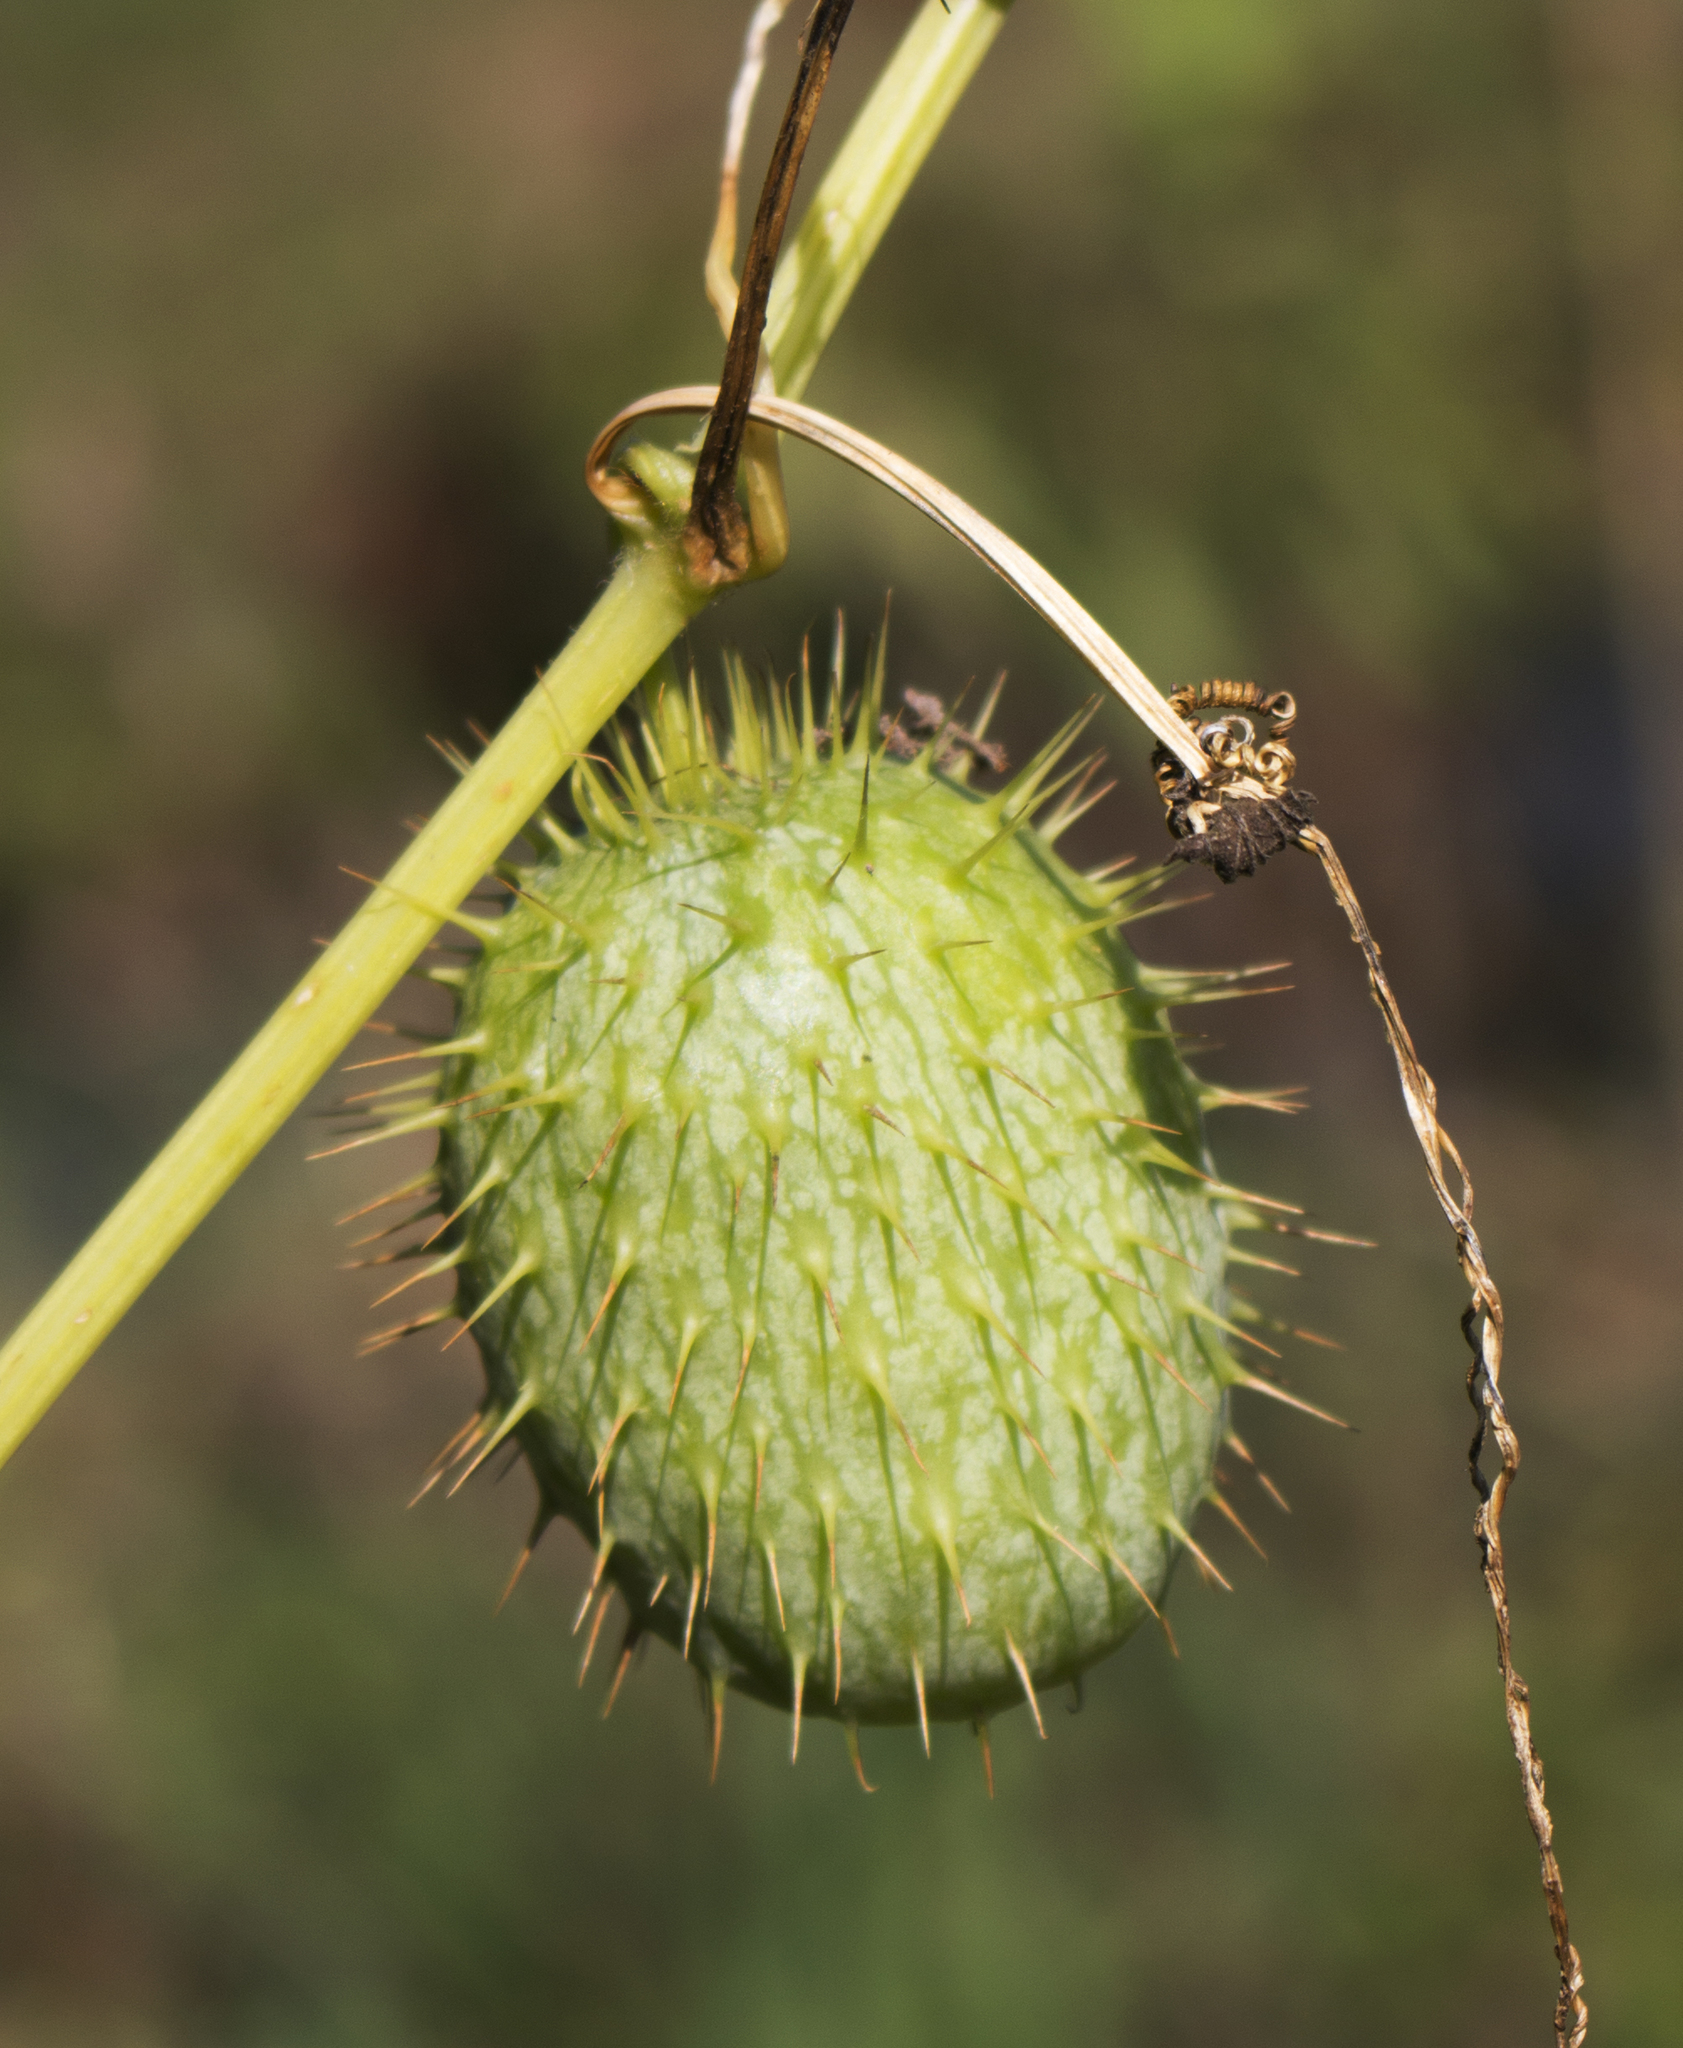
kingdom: Plantae
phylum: Tracheophyta
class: Magnoliopsida
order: Cucurbitales
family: Cucurbitaceae
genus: Echinocystis
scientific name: Echinocystis lobata
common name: Wild cucumber
